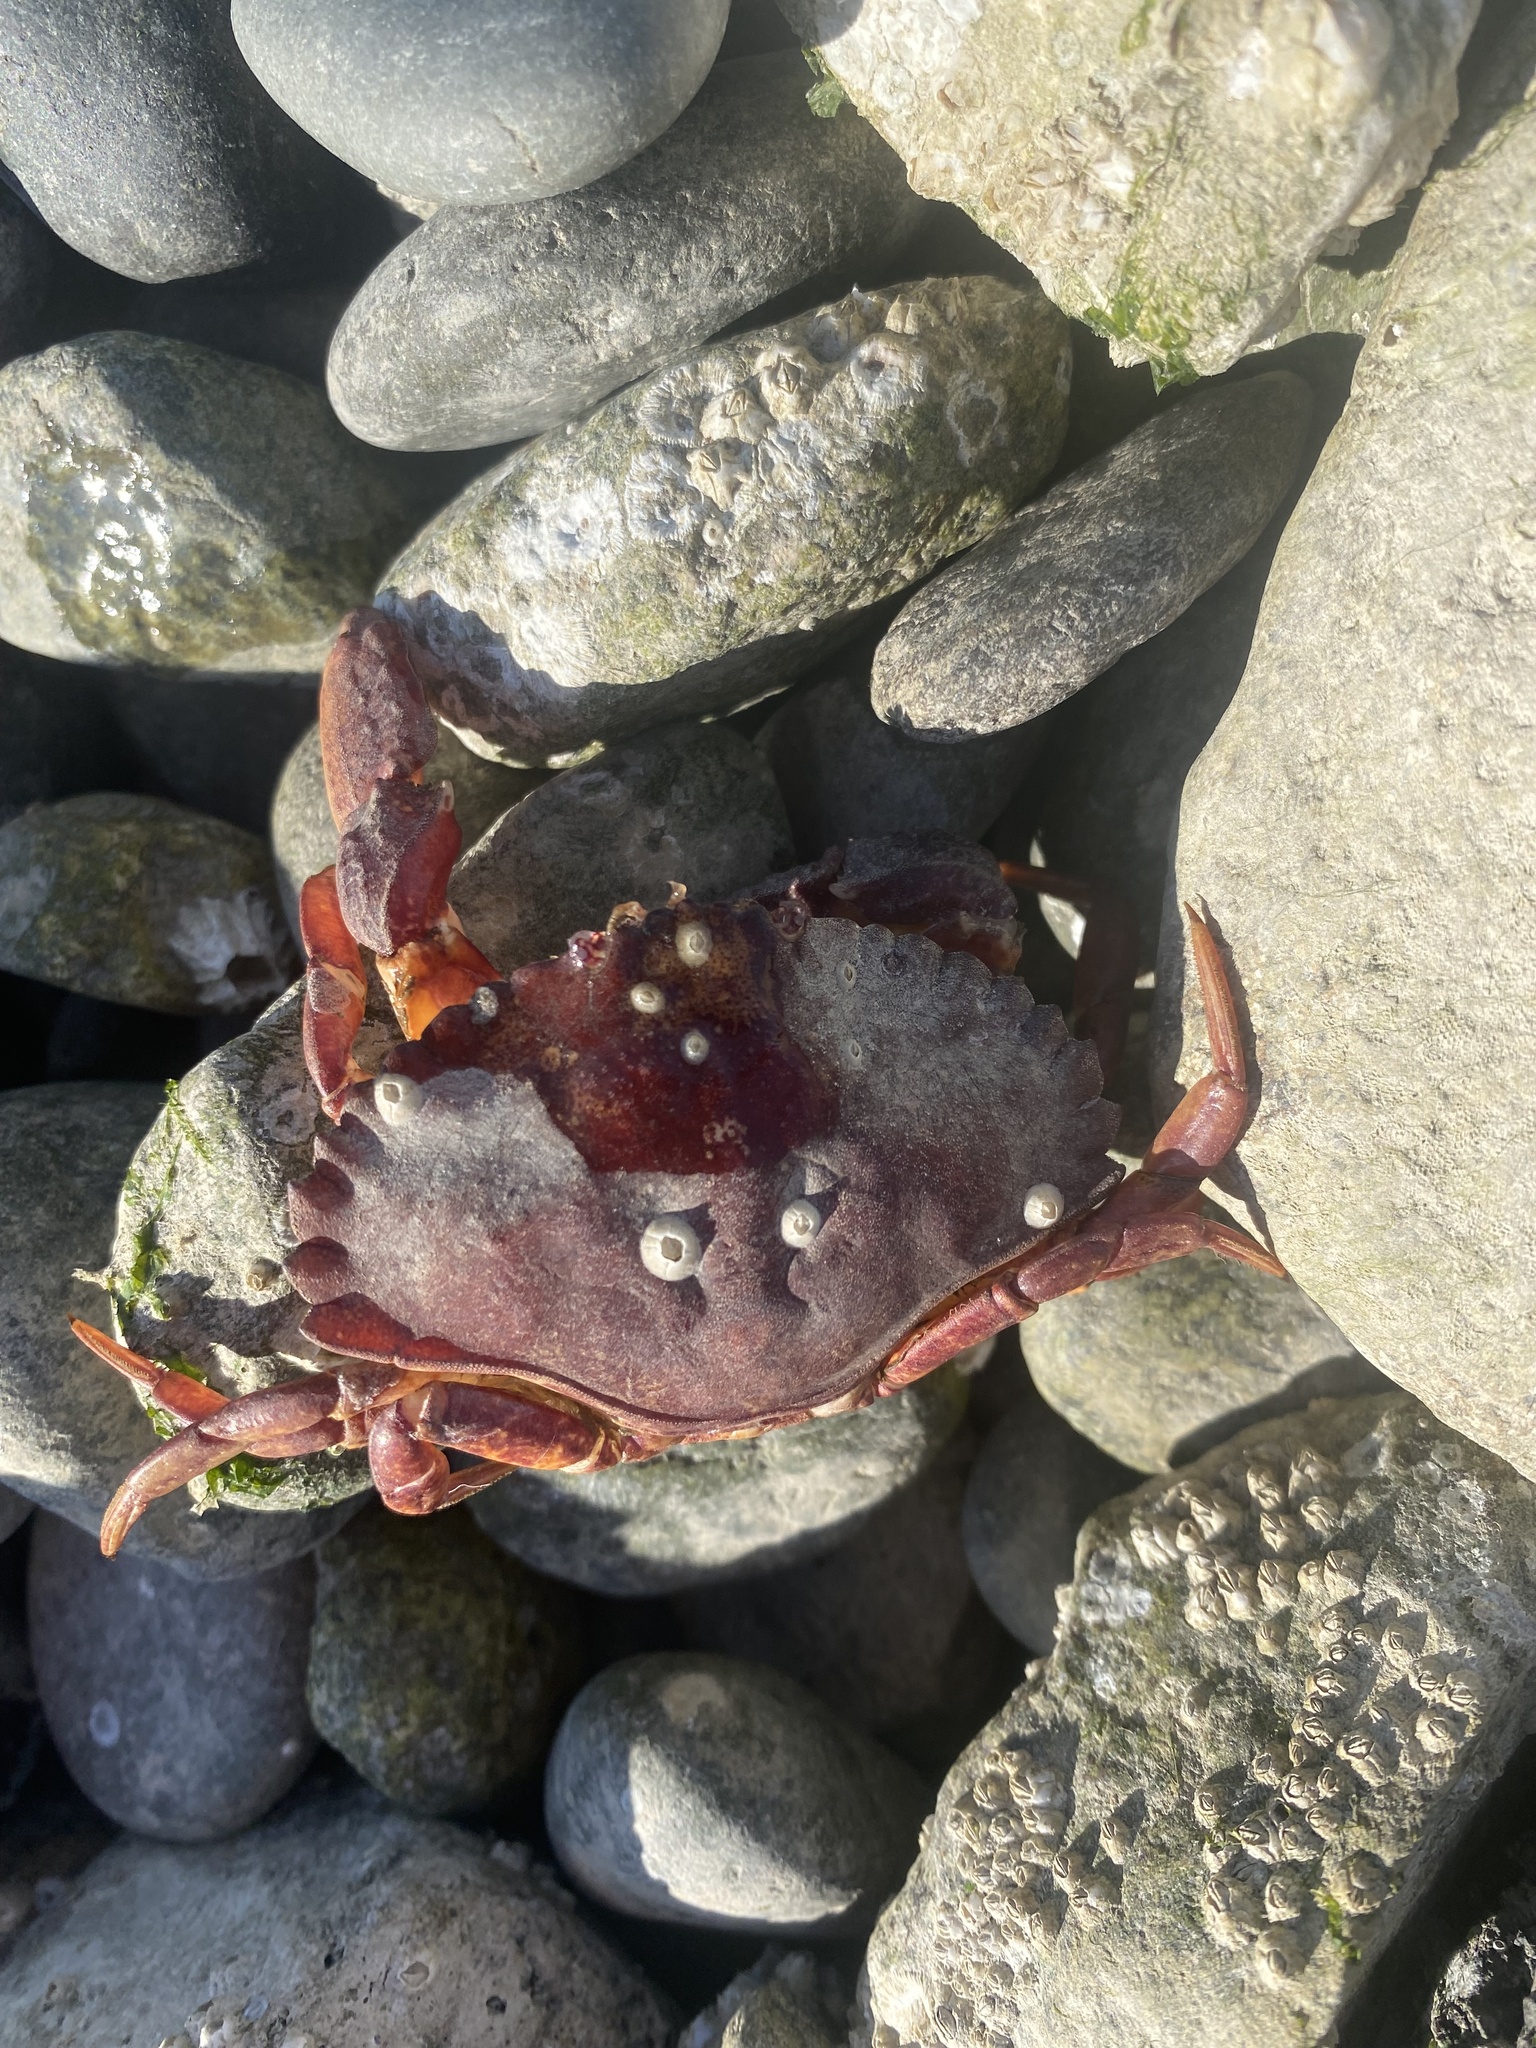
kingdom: Animalia
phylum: Arthropoda
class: Malacostraca
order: Decapoda
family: Cancridae
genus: Cancer
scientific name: Cancer productus
